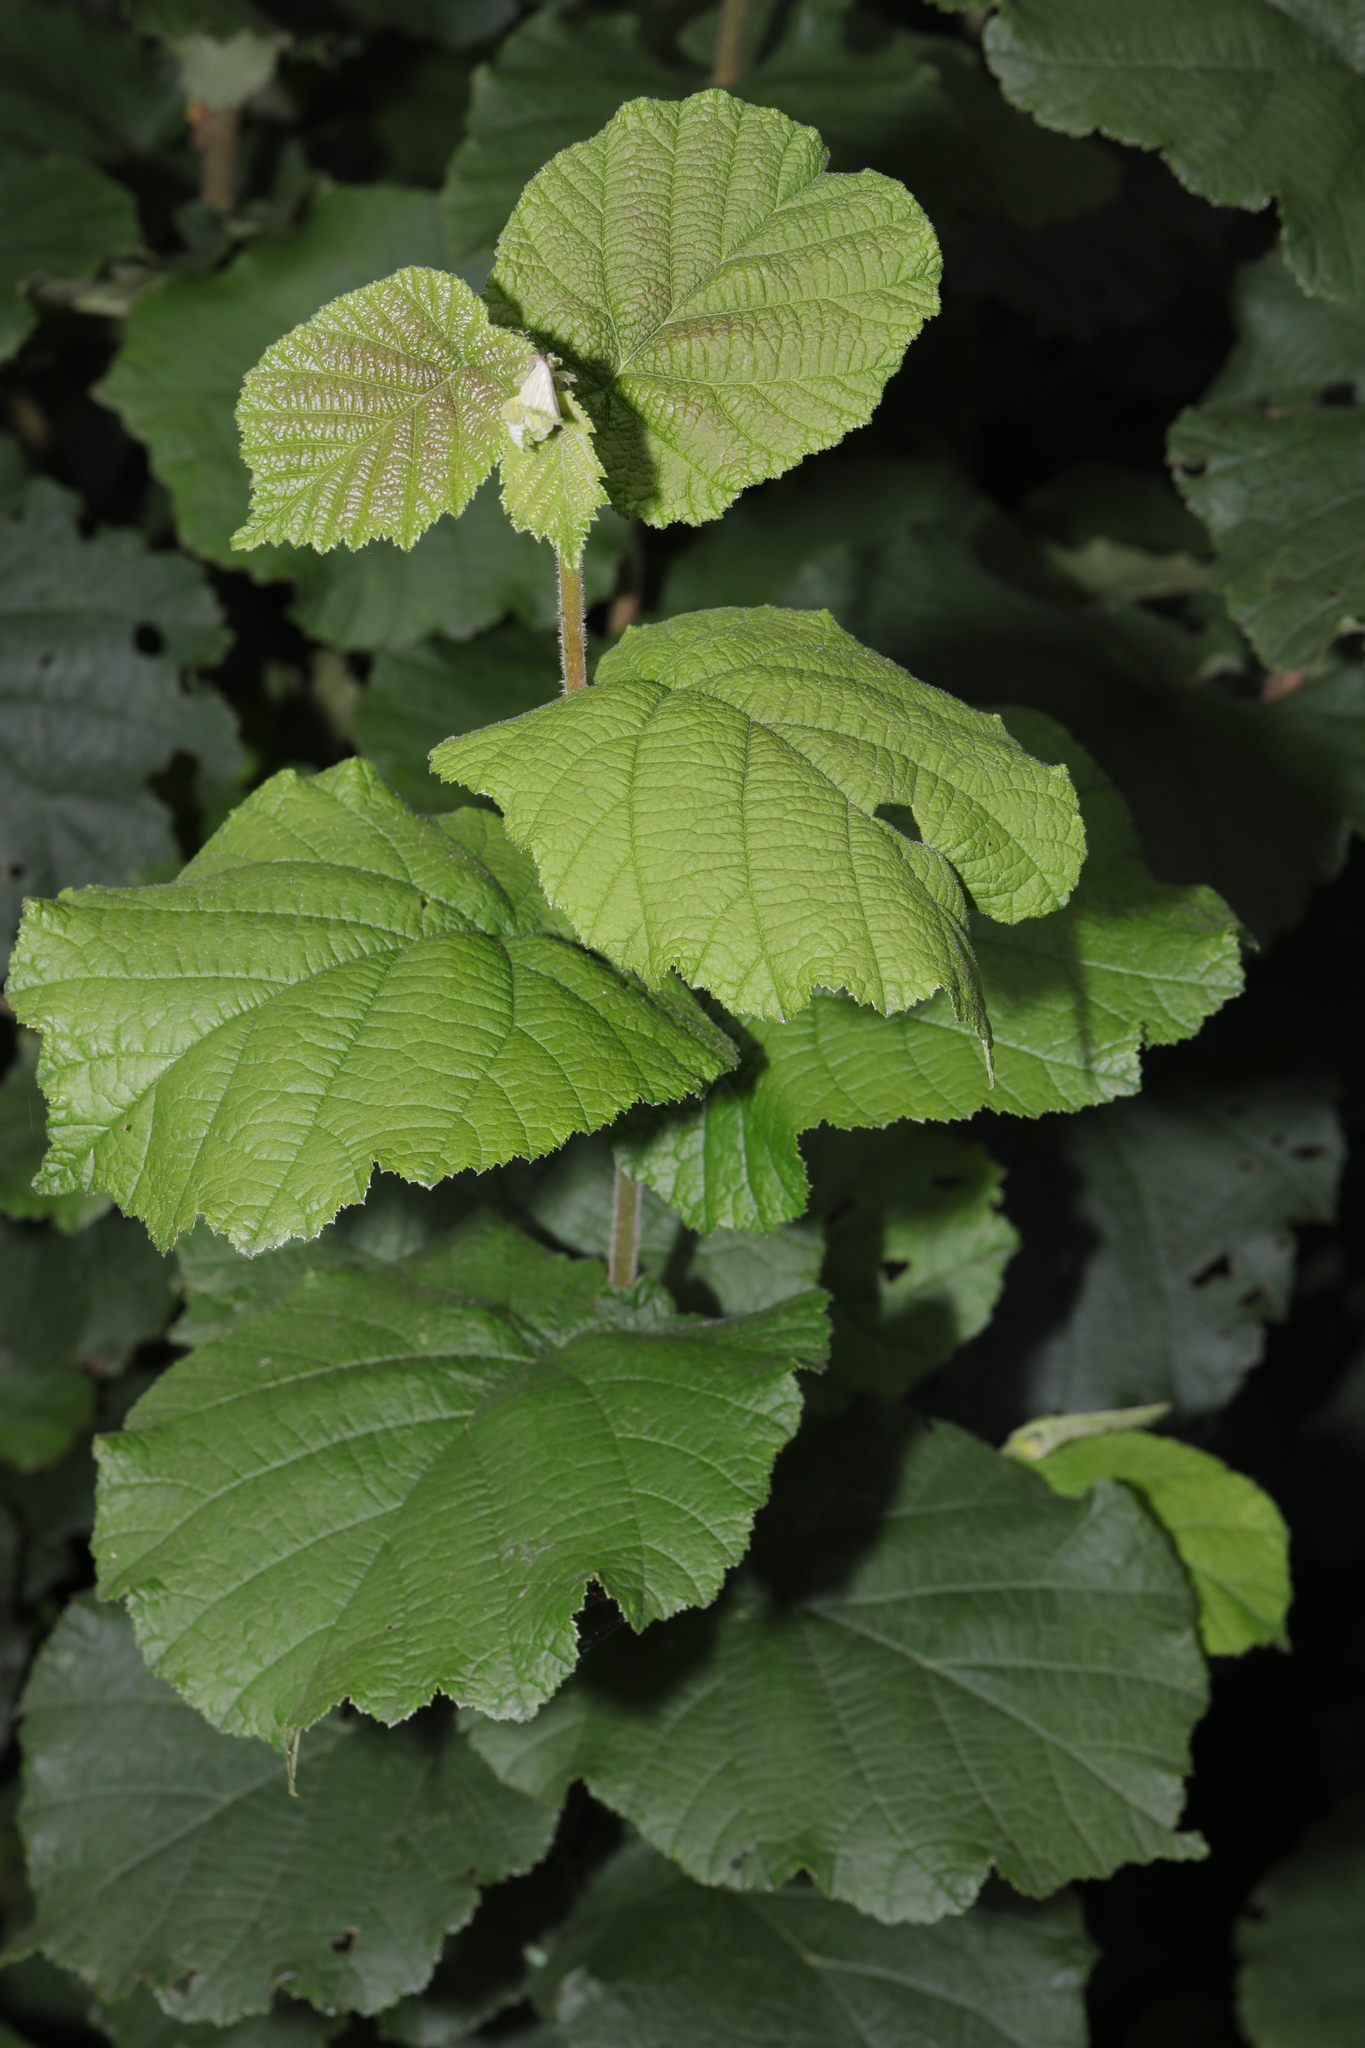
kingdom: Plantae
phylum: Tracheophyta
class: Magnoliopsida
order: Fagales
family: Betulaceae
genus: Corylus
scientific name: Corylus avellana
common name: European hazel
